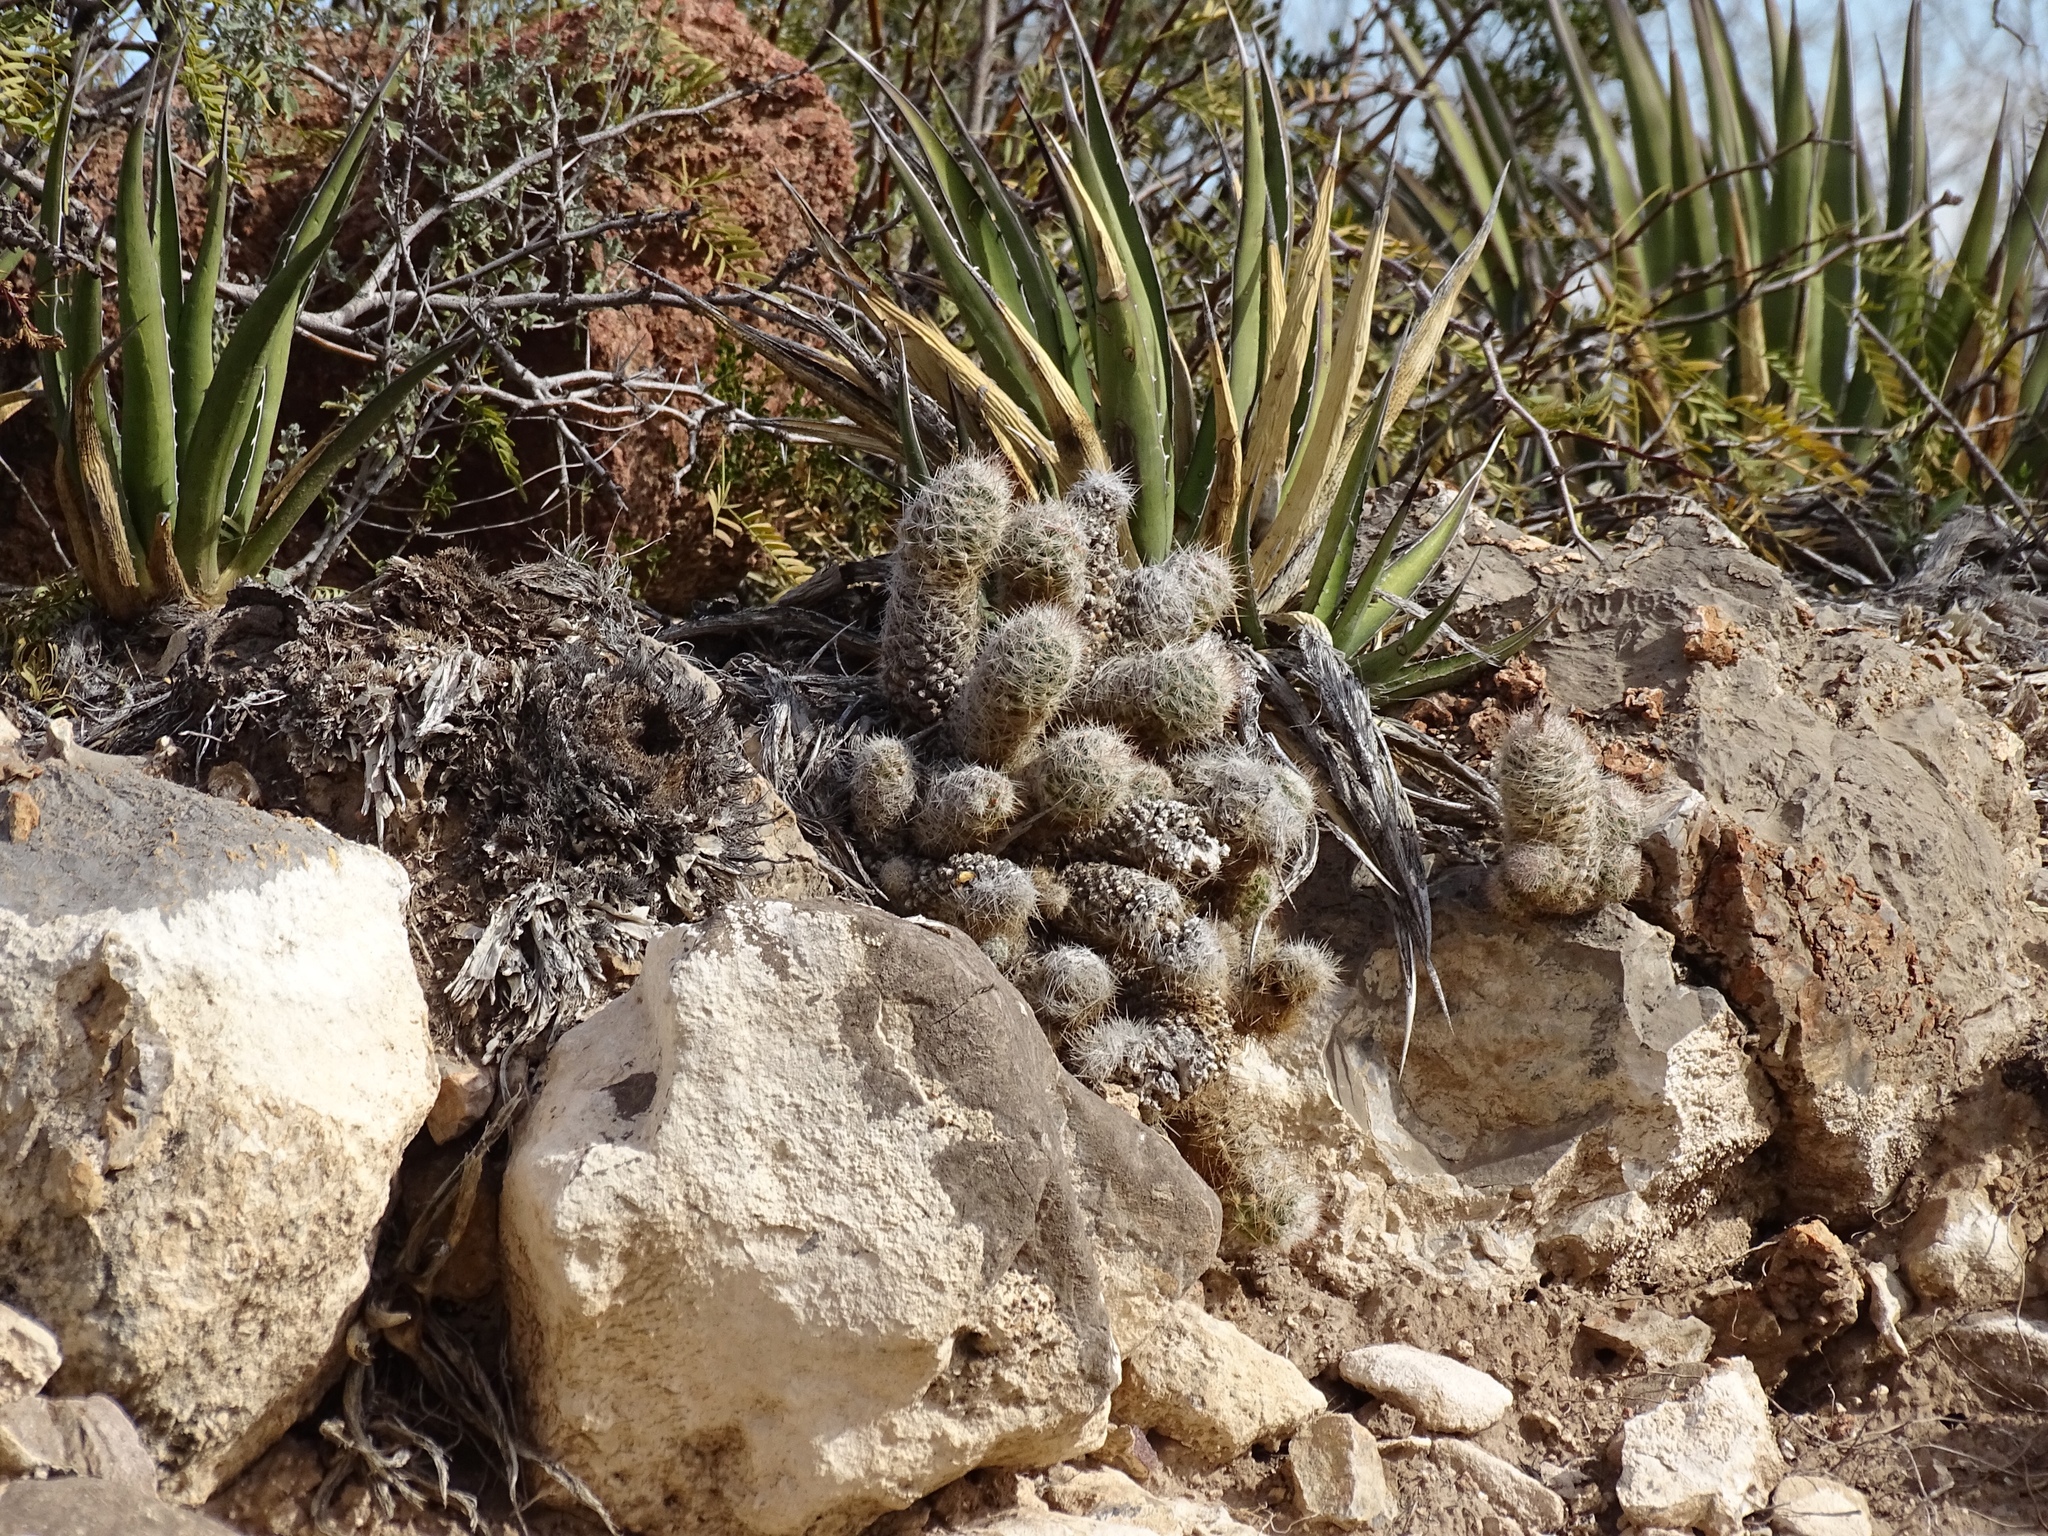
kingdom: Plantae
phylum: Tracheophyta
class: Magnoliopsida
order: Caryophyllales
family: Cactaceae
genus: Pelecyphora
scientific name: Pelecyphora tuberculosa
